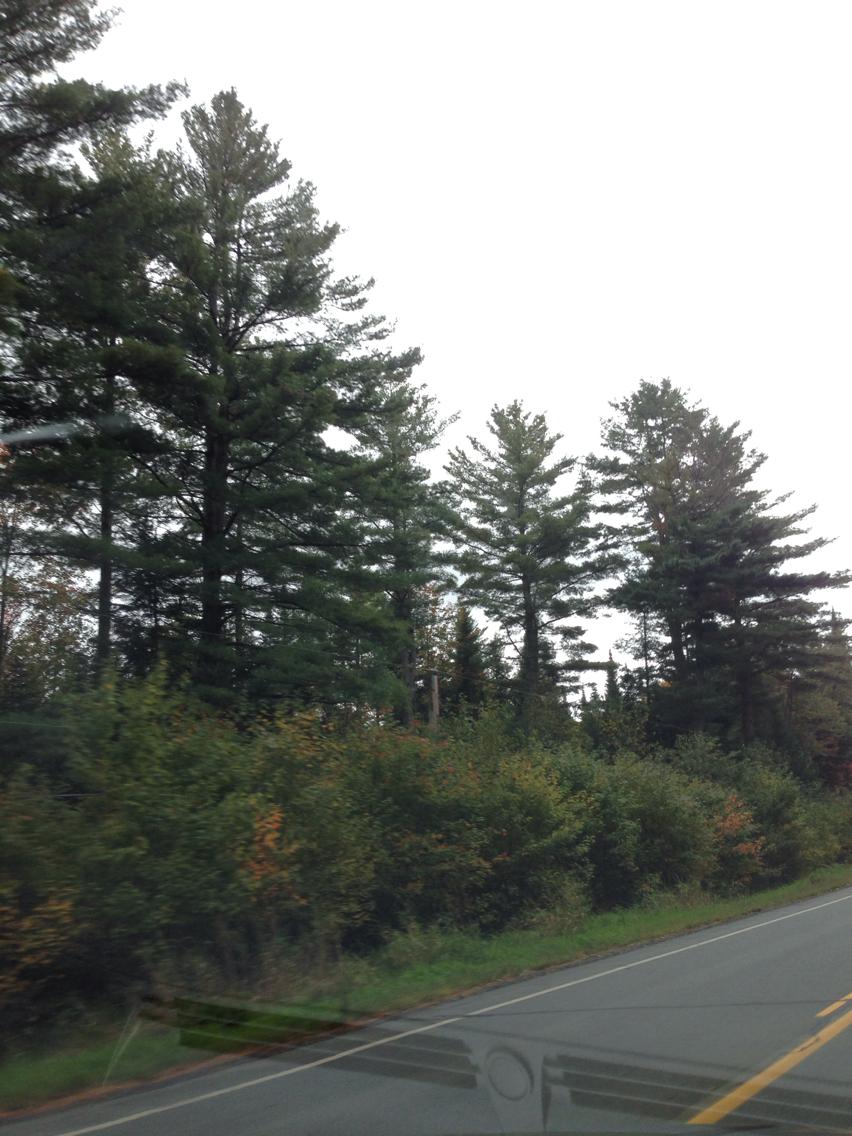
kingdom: Plantae
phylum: Tracheophyta
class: Pinopsida
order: Pinales
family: Pinaceae
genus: Pinus
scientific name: Pinus strobus
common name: Weymouth pine
